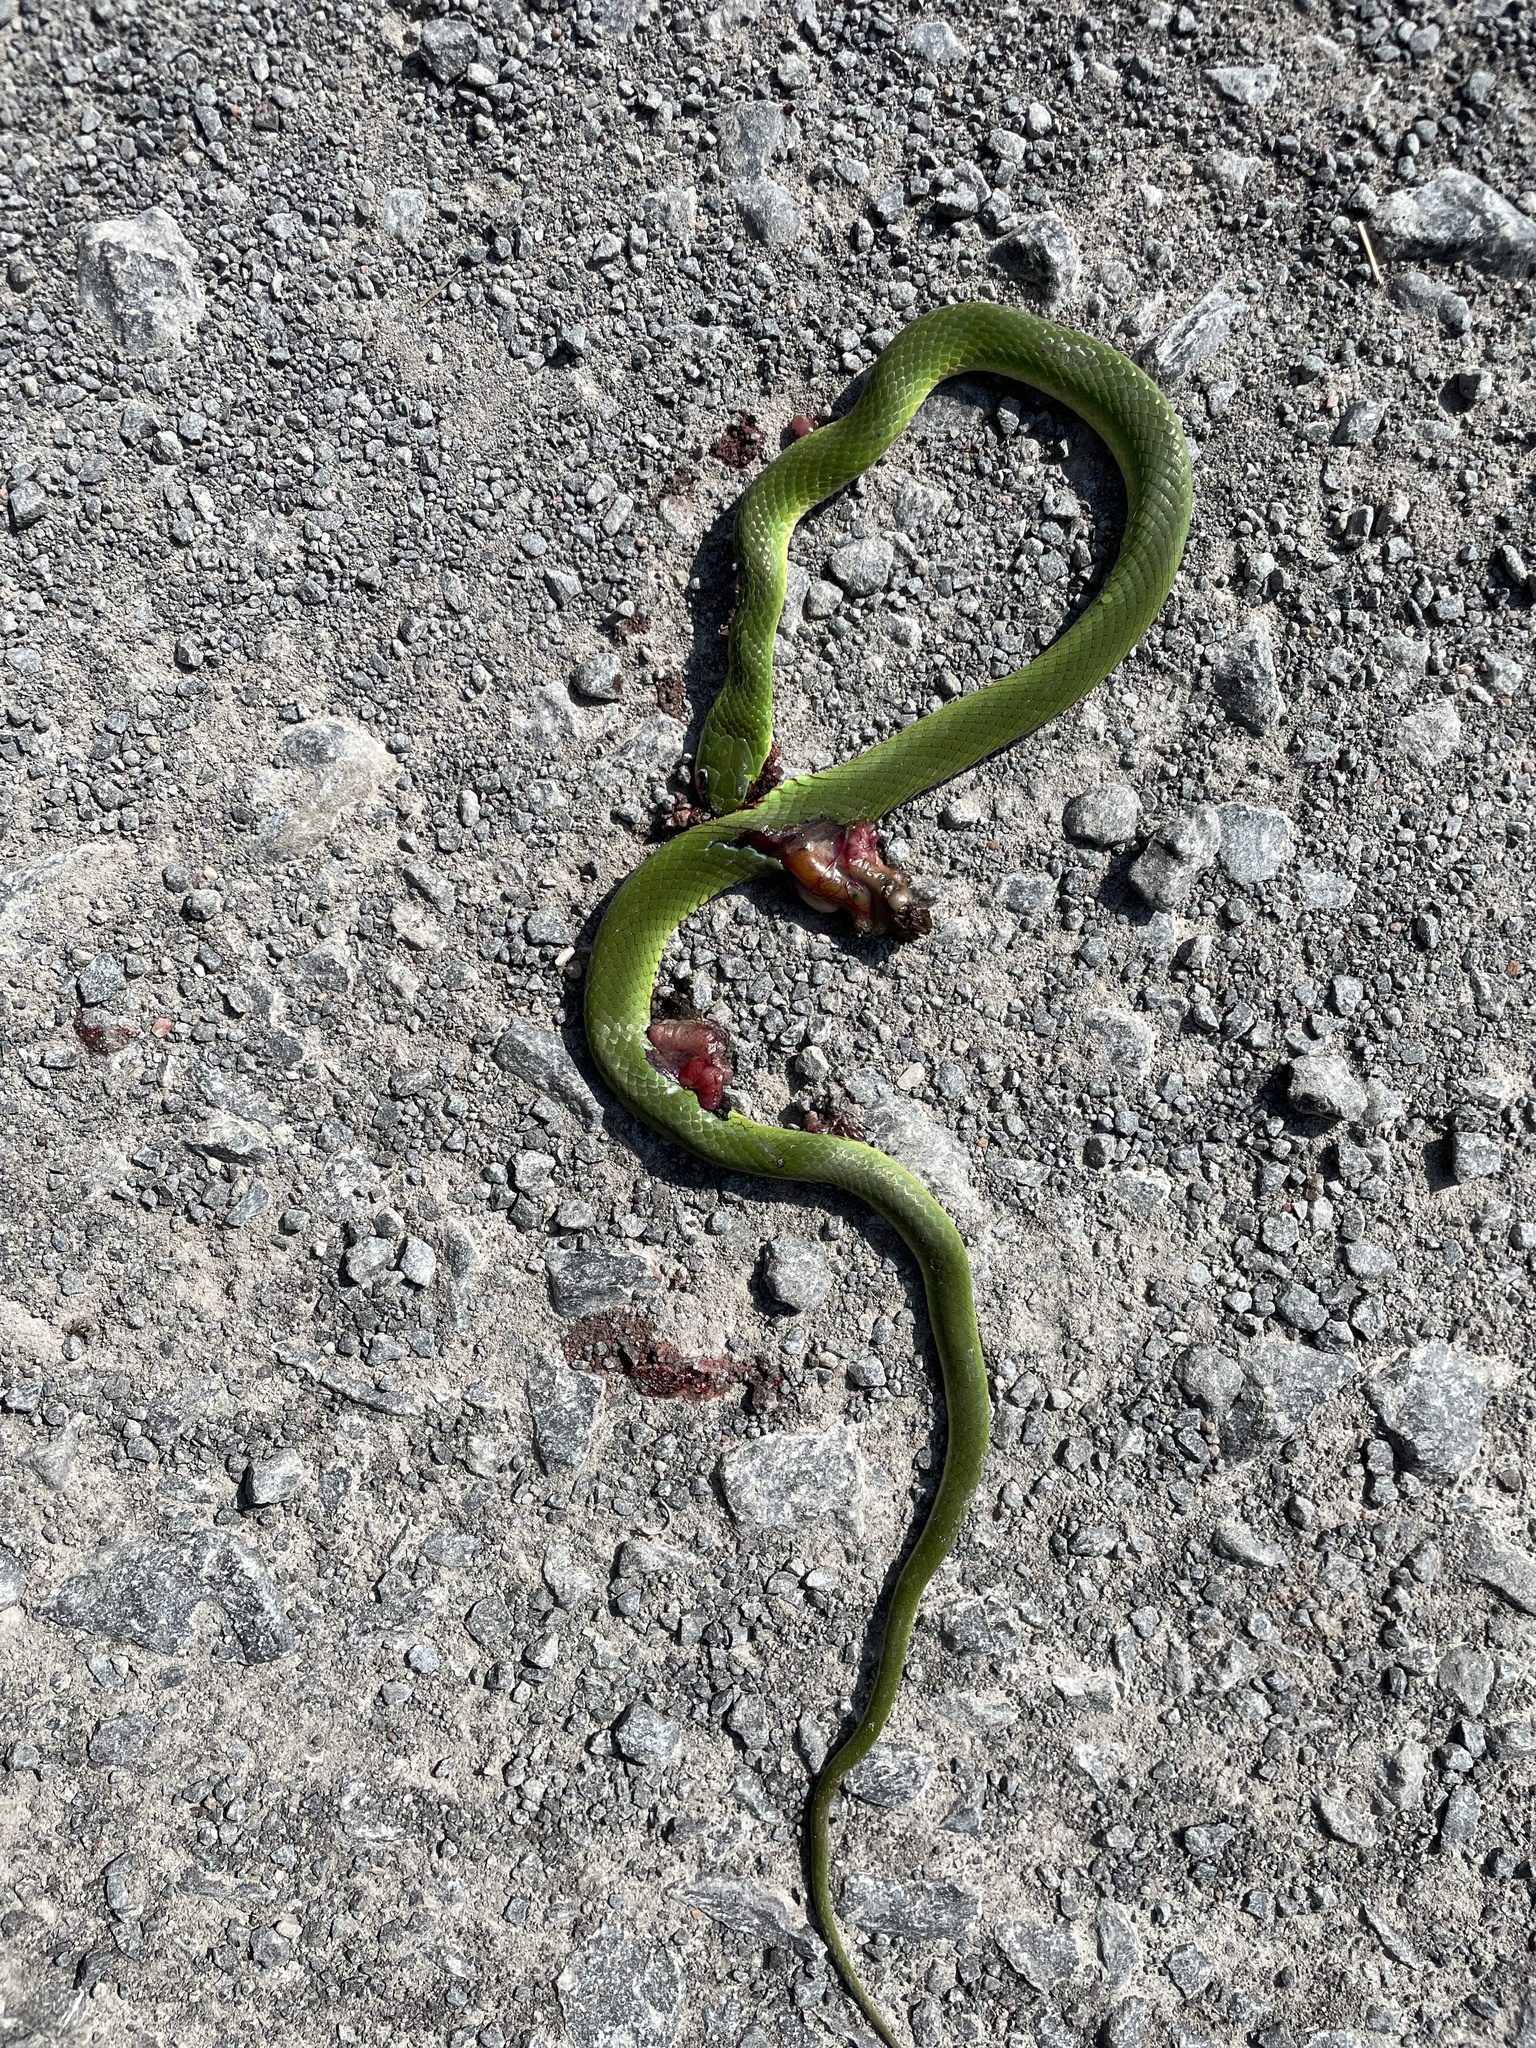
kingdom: Animalia
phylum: Chordata
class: Squamata
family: Colubridae
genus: Opheodrys
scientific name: Opheodrys vernalis
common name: Smooth green snake
